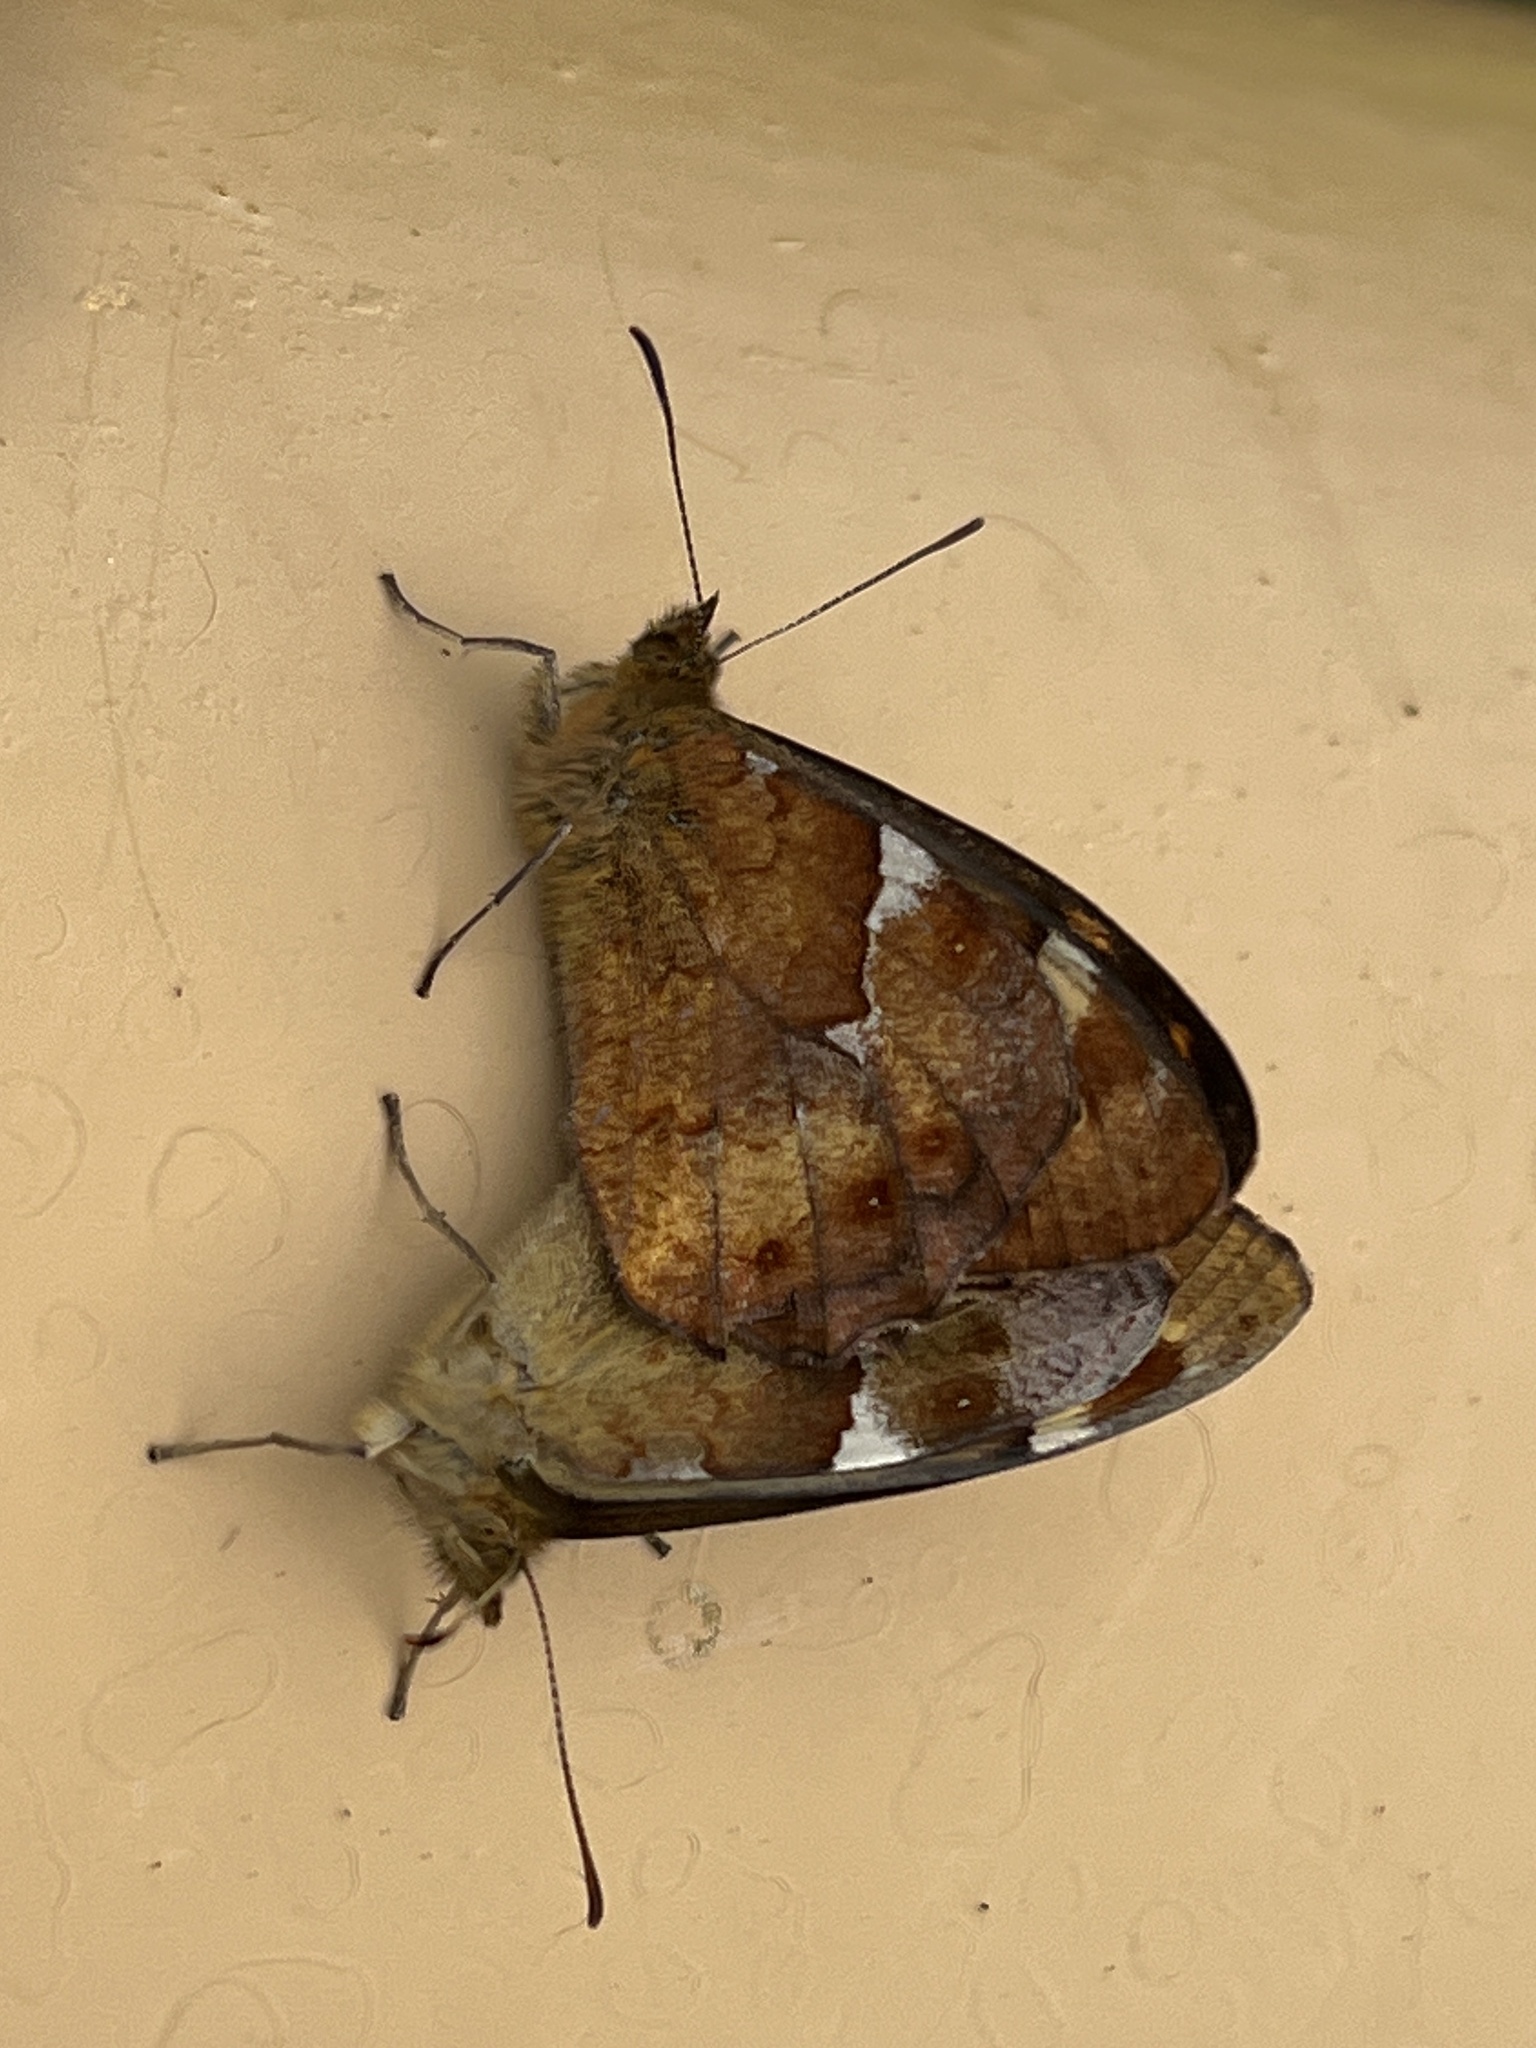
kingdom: Animalia
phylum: Arthropoda
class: Insecta
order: Lepidoptera
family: Nymphalidae
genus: Pararge
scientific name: Pararge aegeria
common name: Speckled wood
